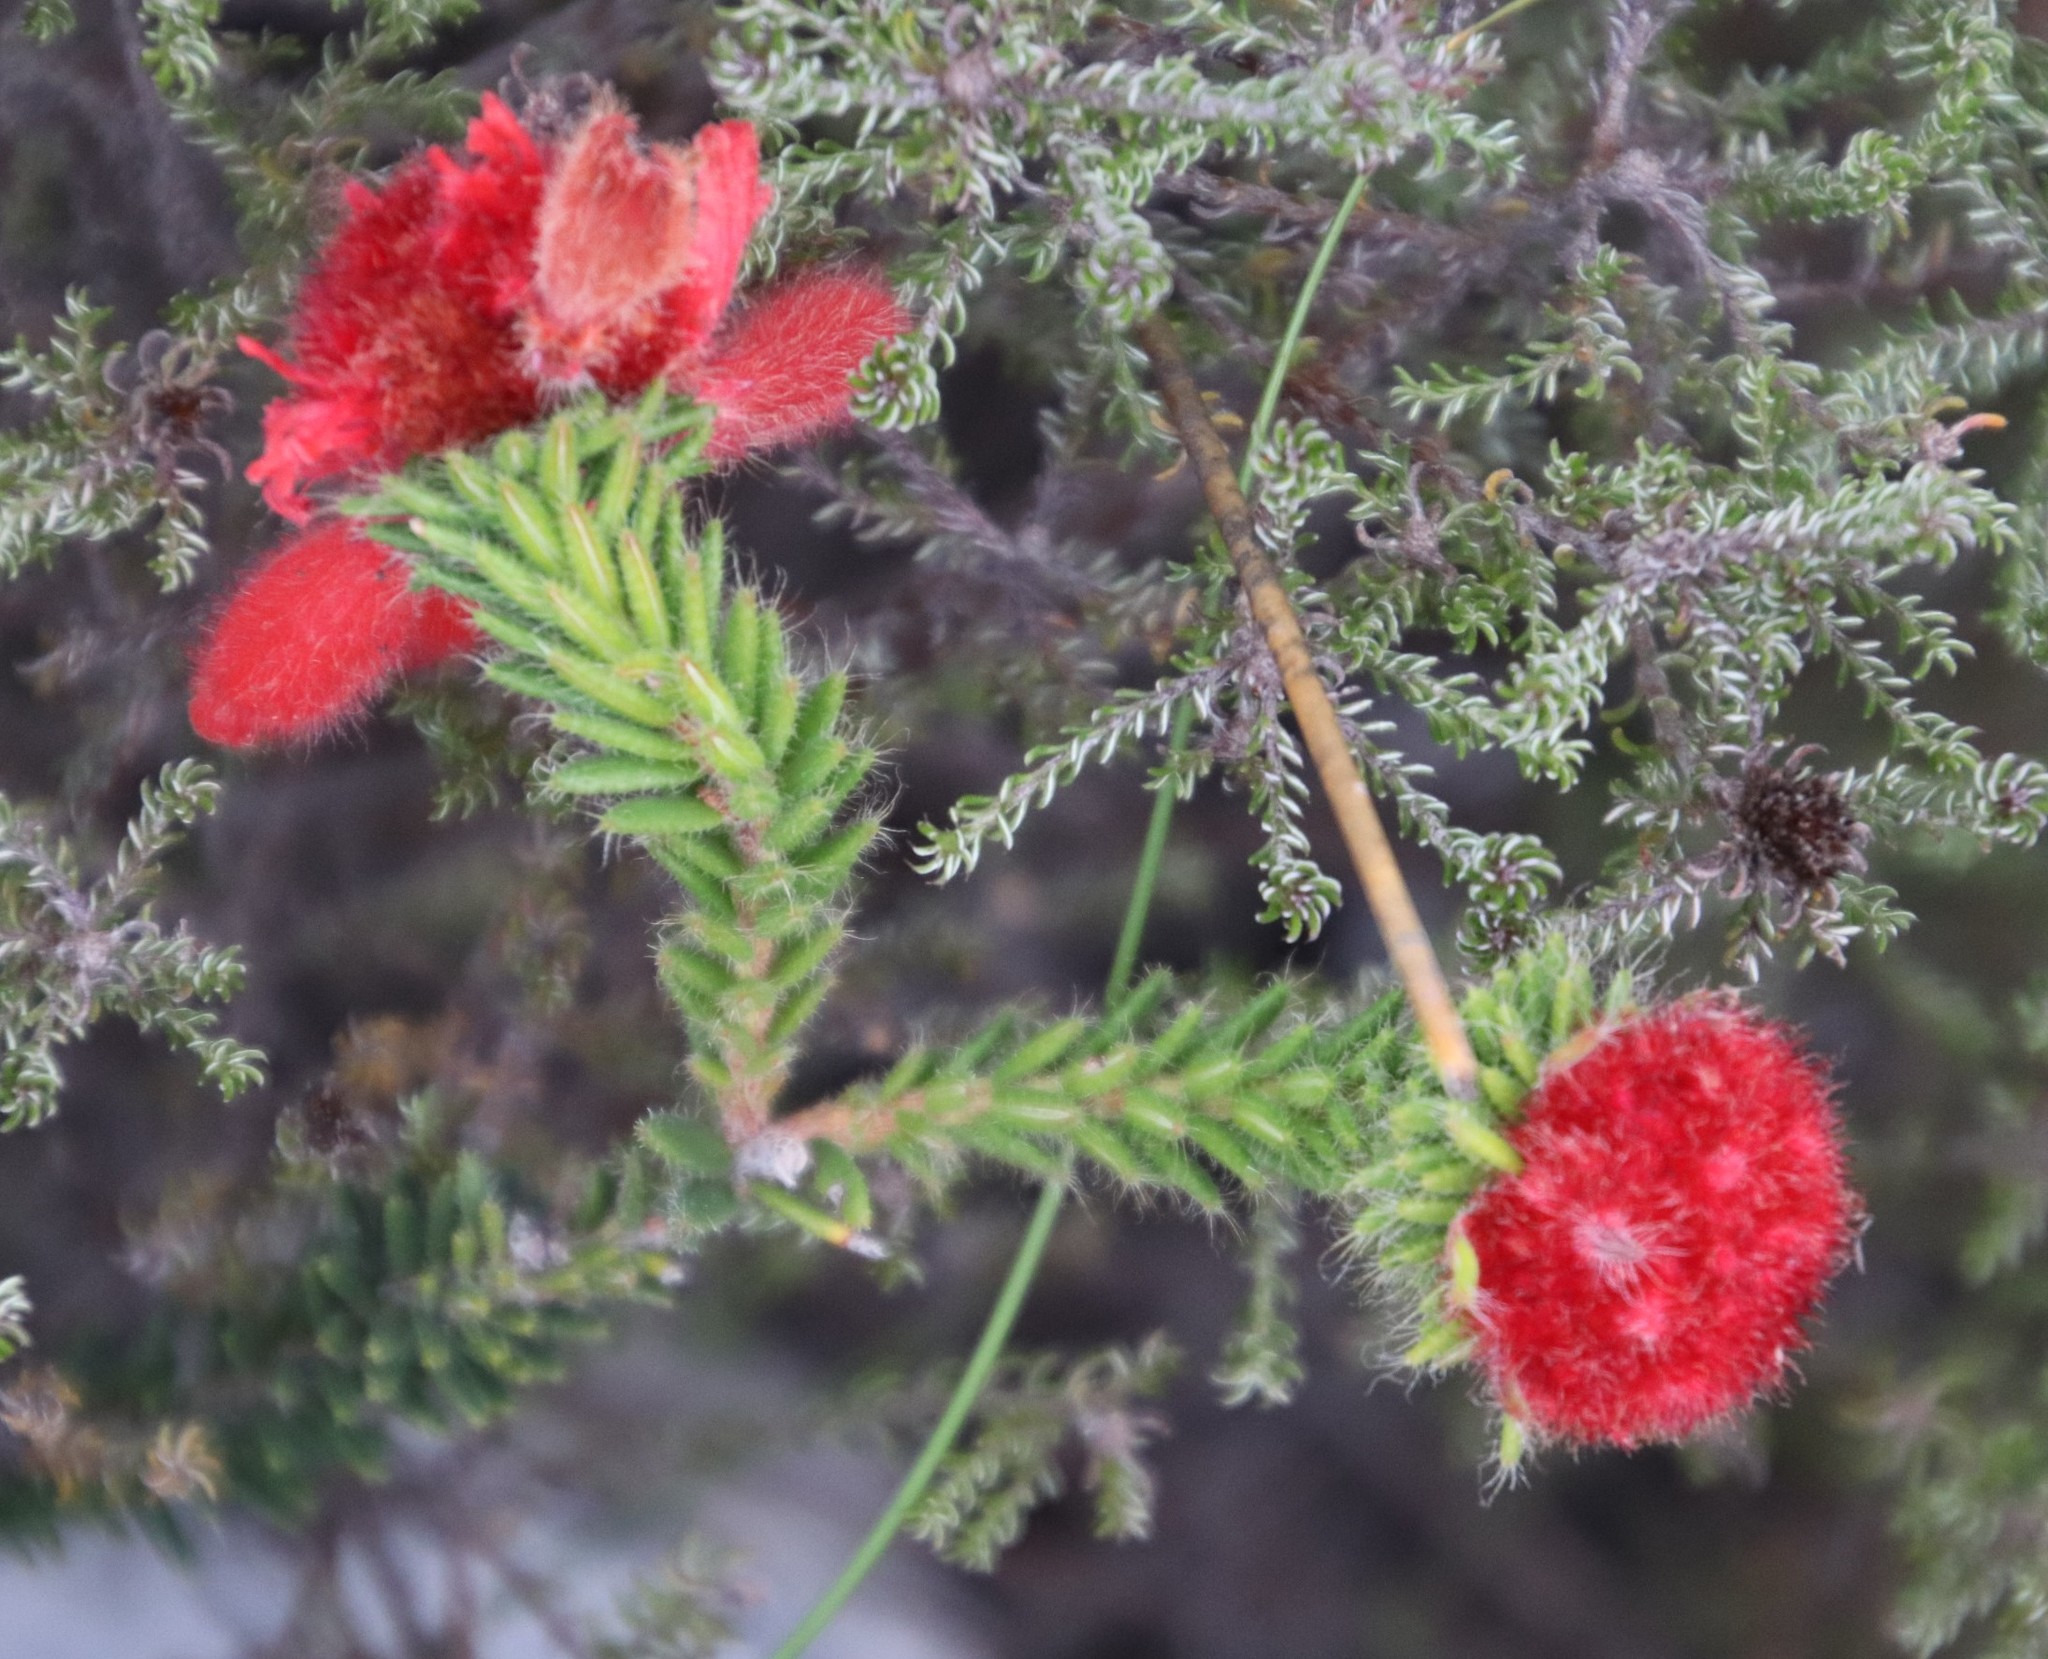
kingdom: Plantae
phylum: Tracheophyta
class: Magnoliopsida
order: Ericales
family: Ericaceae
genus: Erica
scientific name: Erica cerinthoides
